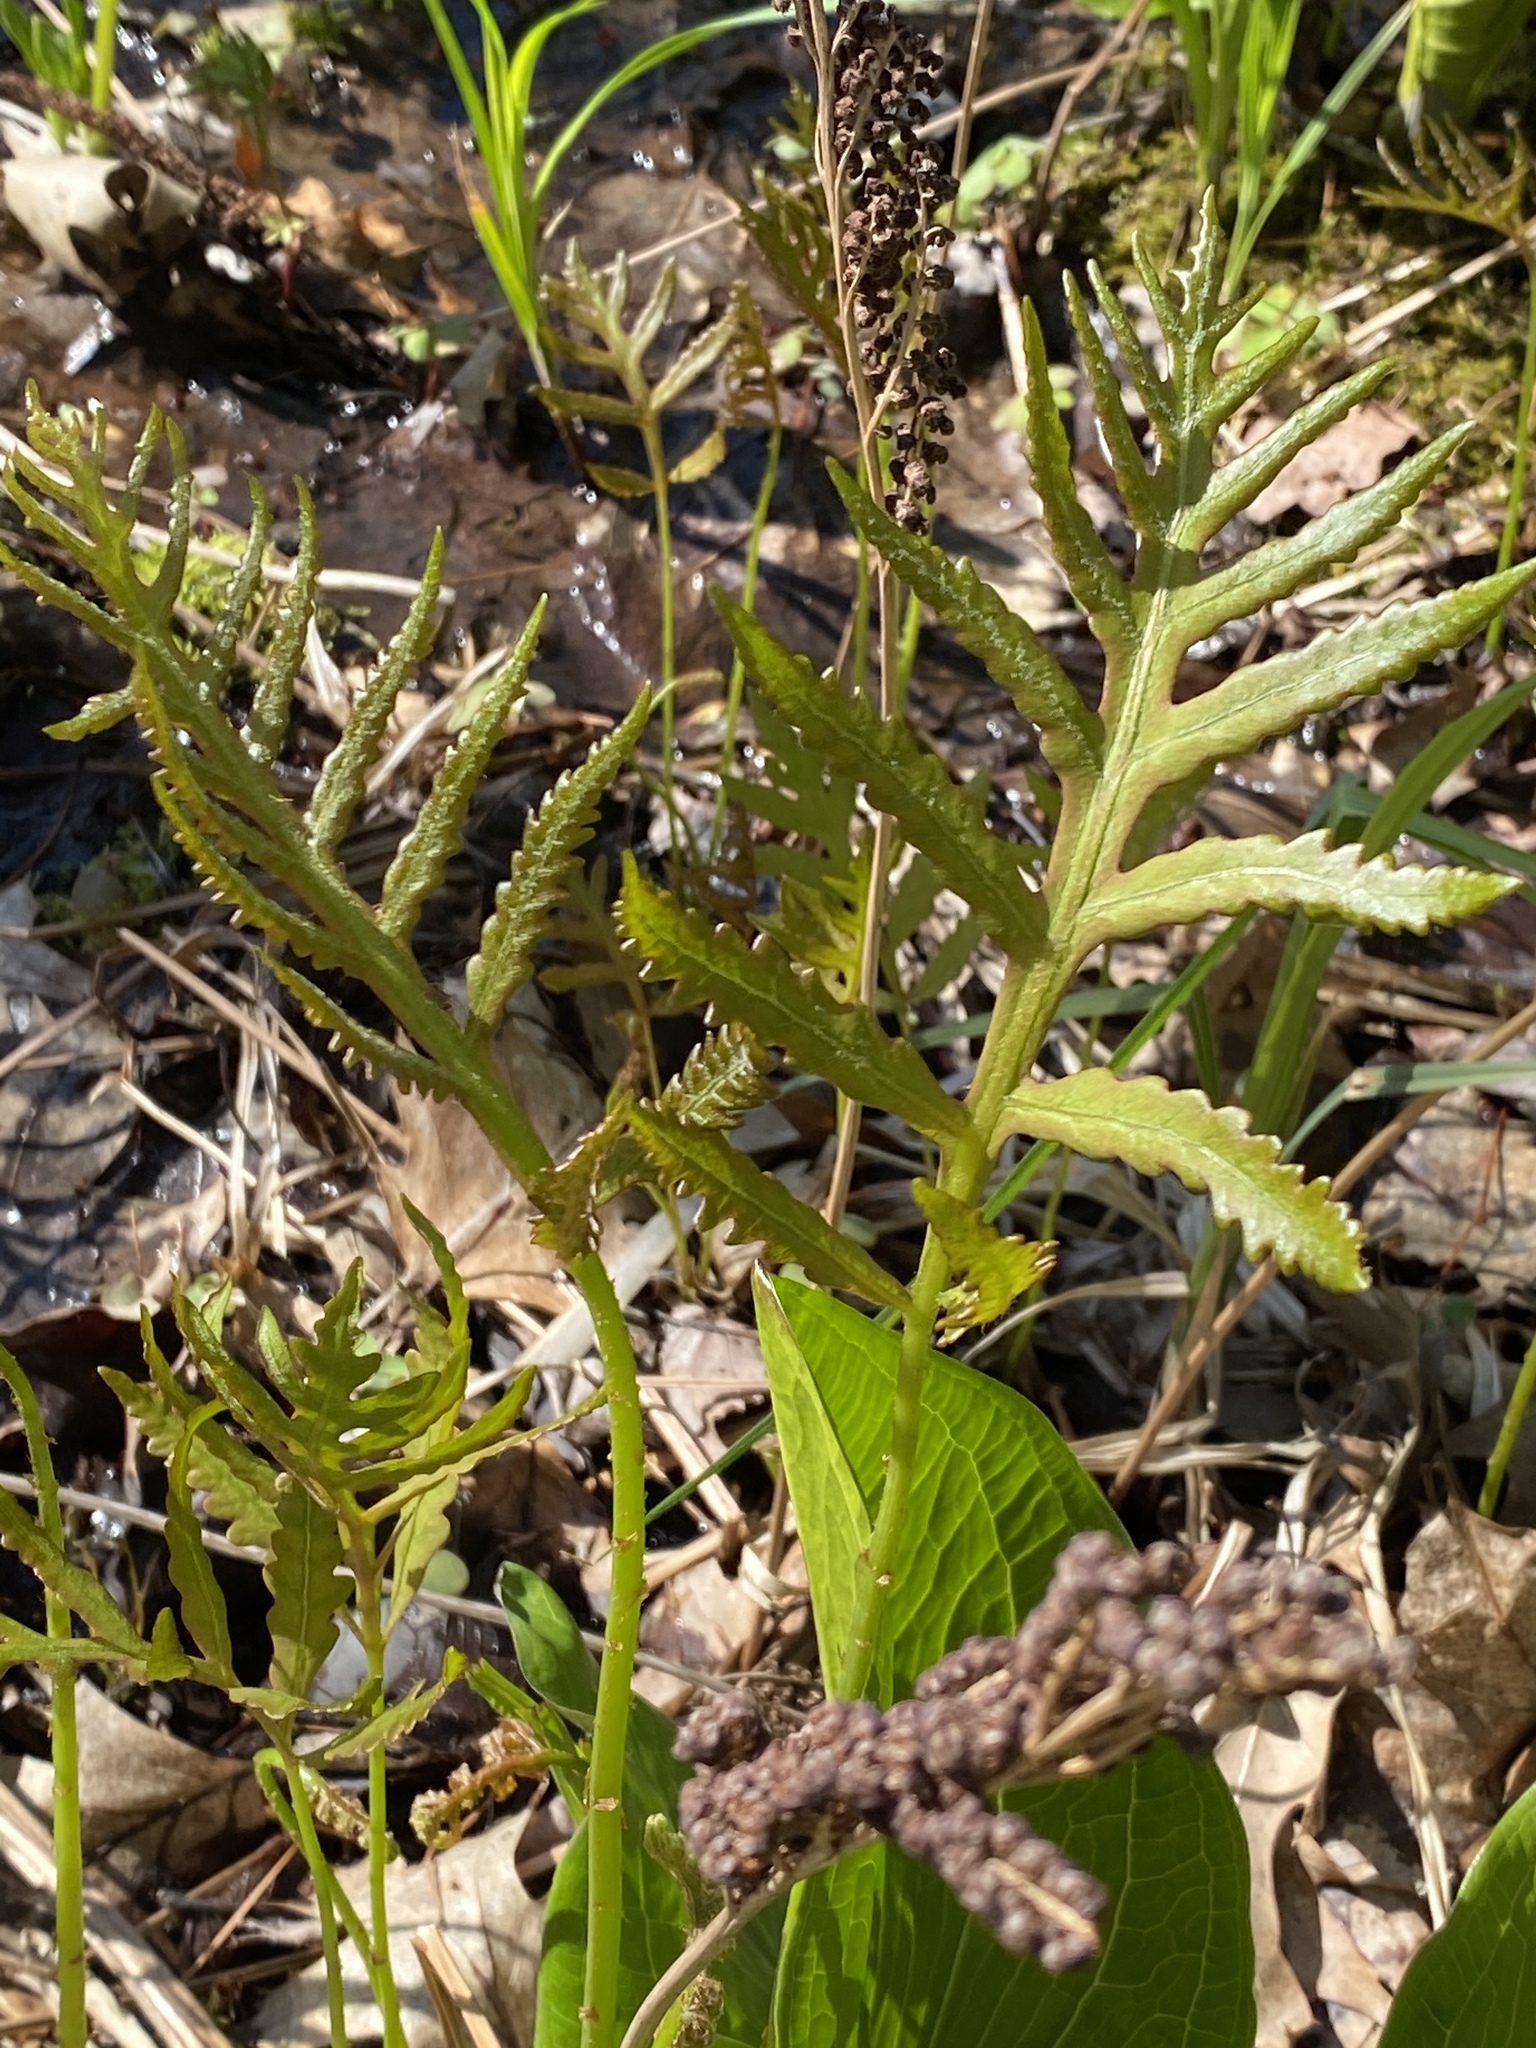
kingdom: Plantae
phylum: Tracheophyta
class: Polypodiopsida
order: Polypodiales
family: Onocleaceae
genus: Onoclea
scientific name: Onoclea sensibilis
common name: Sensitive fern
